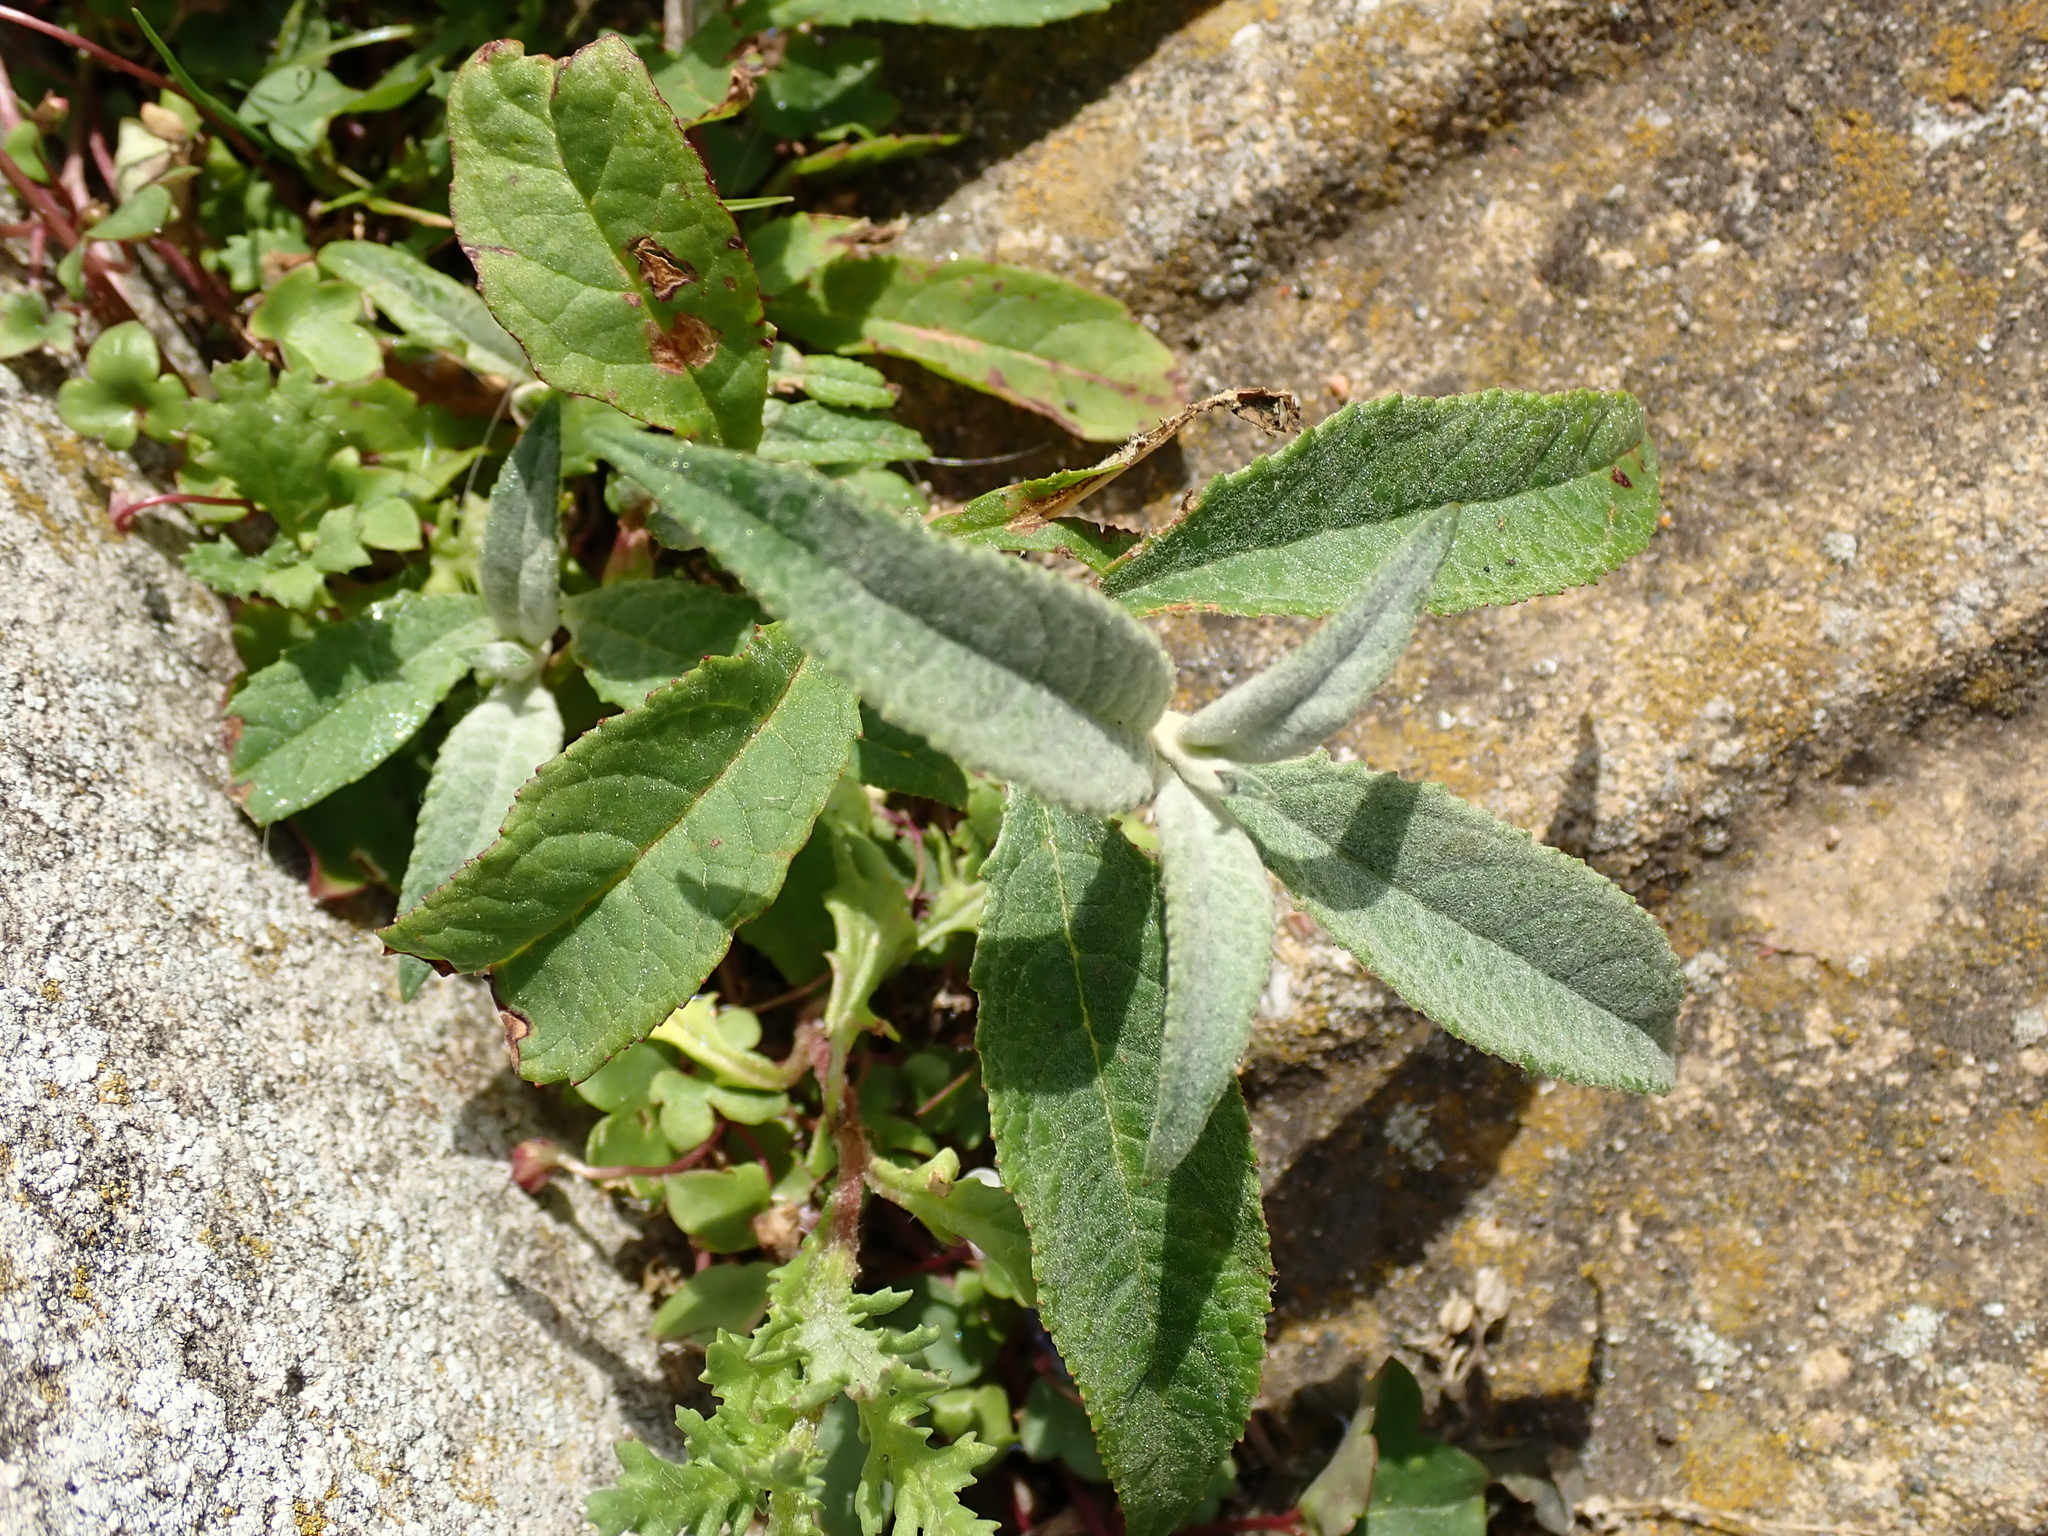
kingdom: Plantae
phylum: Tracheophyta
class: Magnoliopsida
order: Lamiales
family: Scrophulariaceae
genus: Buddleja
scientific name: Buddleja davidii
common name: Butterfly-bush
